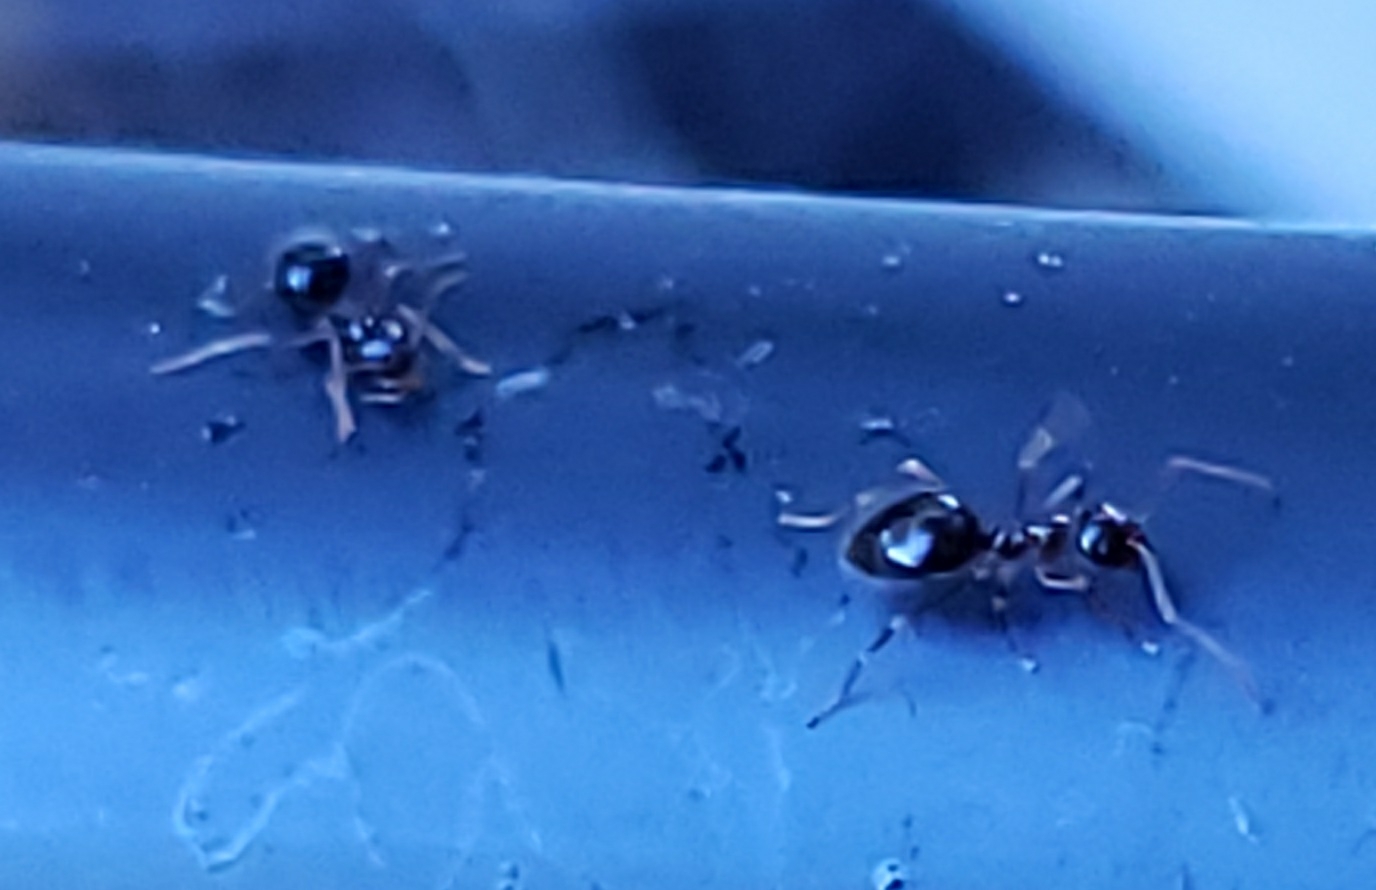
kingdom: Animalia
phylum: Arthropoda
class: Insecta
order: Hymenoptera
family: Formicidae
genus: Prenolepis
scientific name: Prenolepis imparis
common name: Small honey ant
